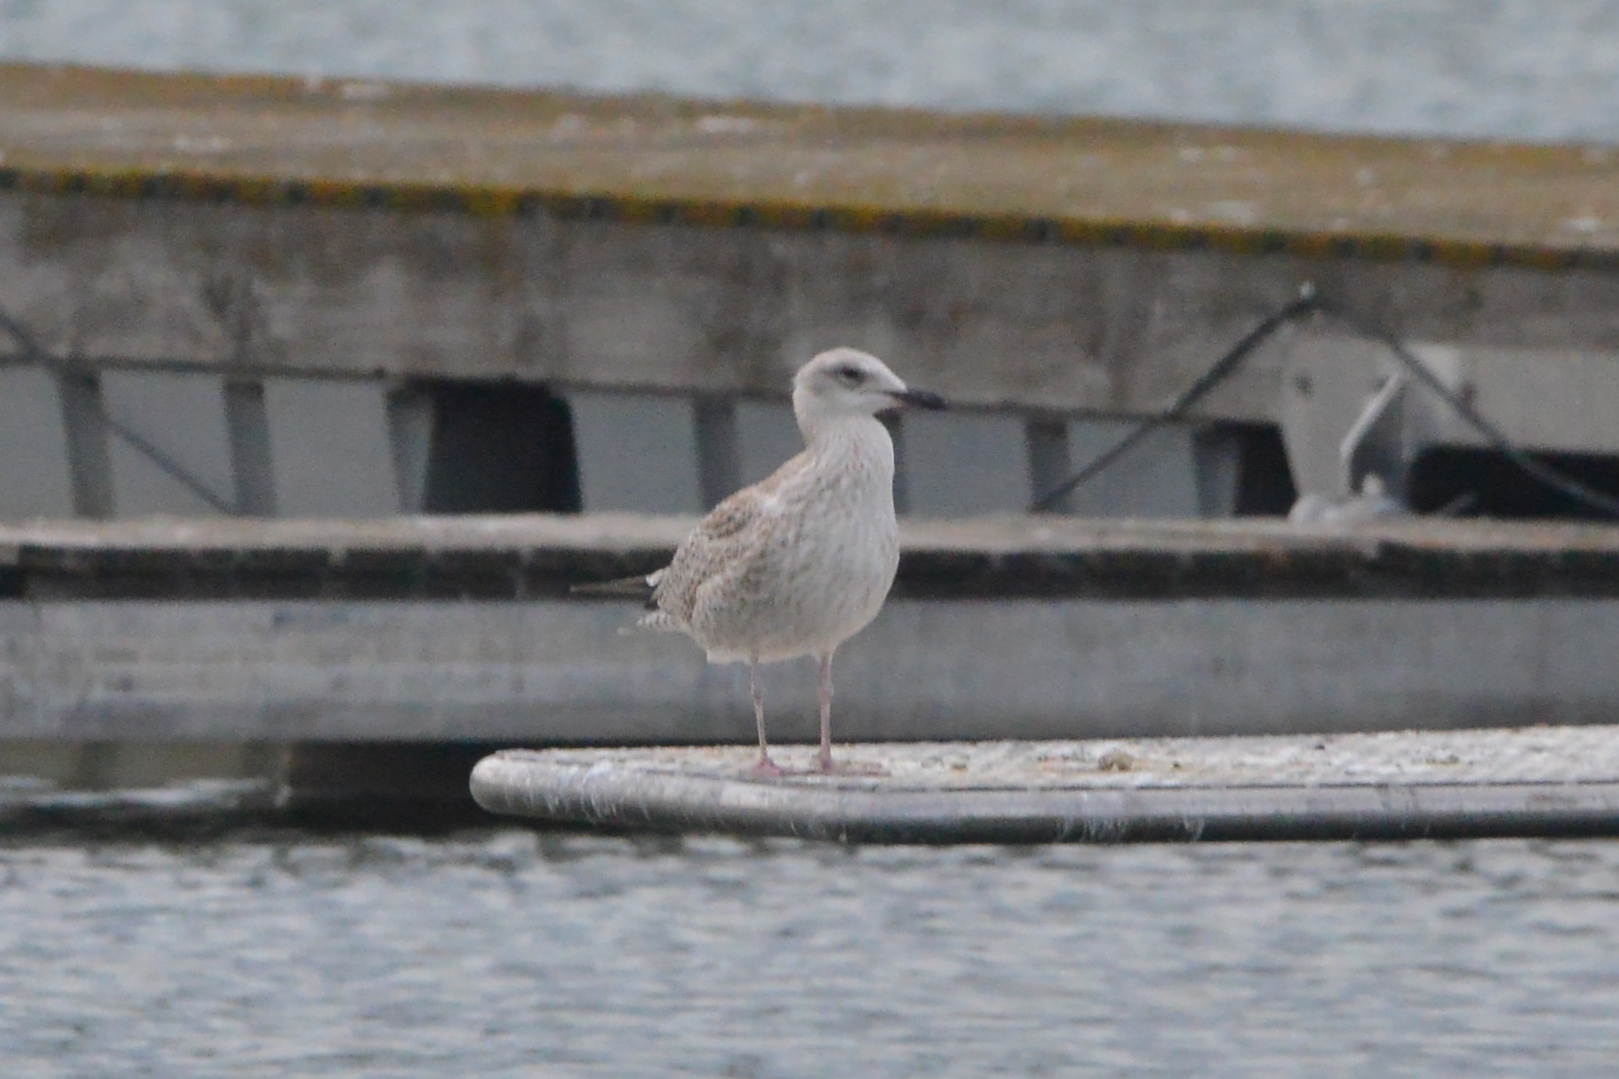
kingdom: Animalia
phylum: Chordata
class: Aves
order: Charadriiformes
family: Laridae
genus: Larus
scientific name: Larus cachinnans
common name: Caspian gull
